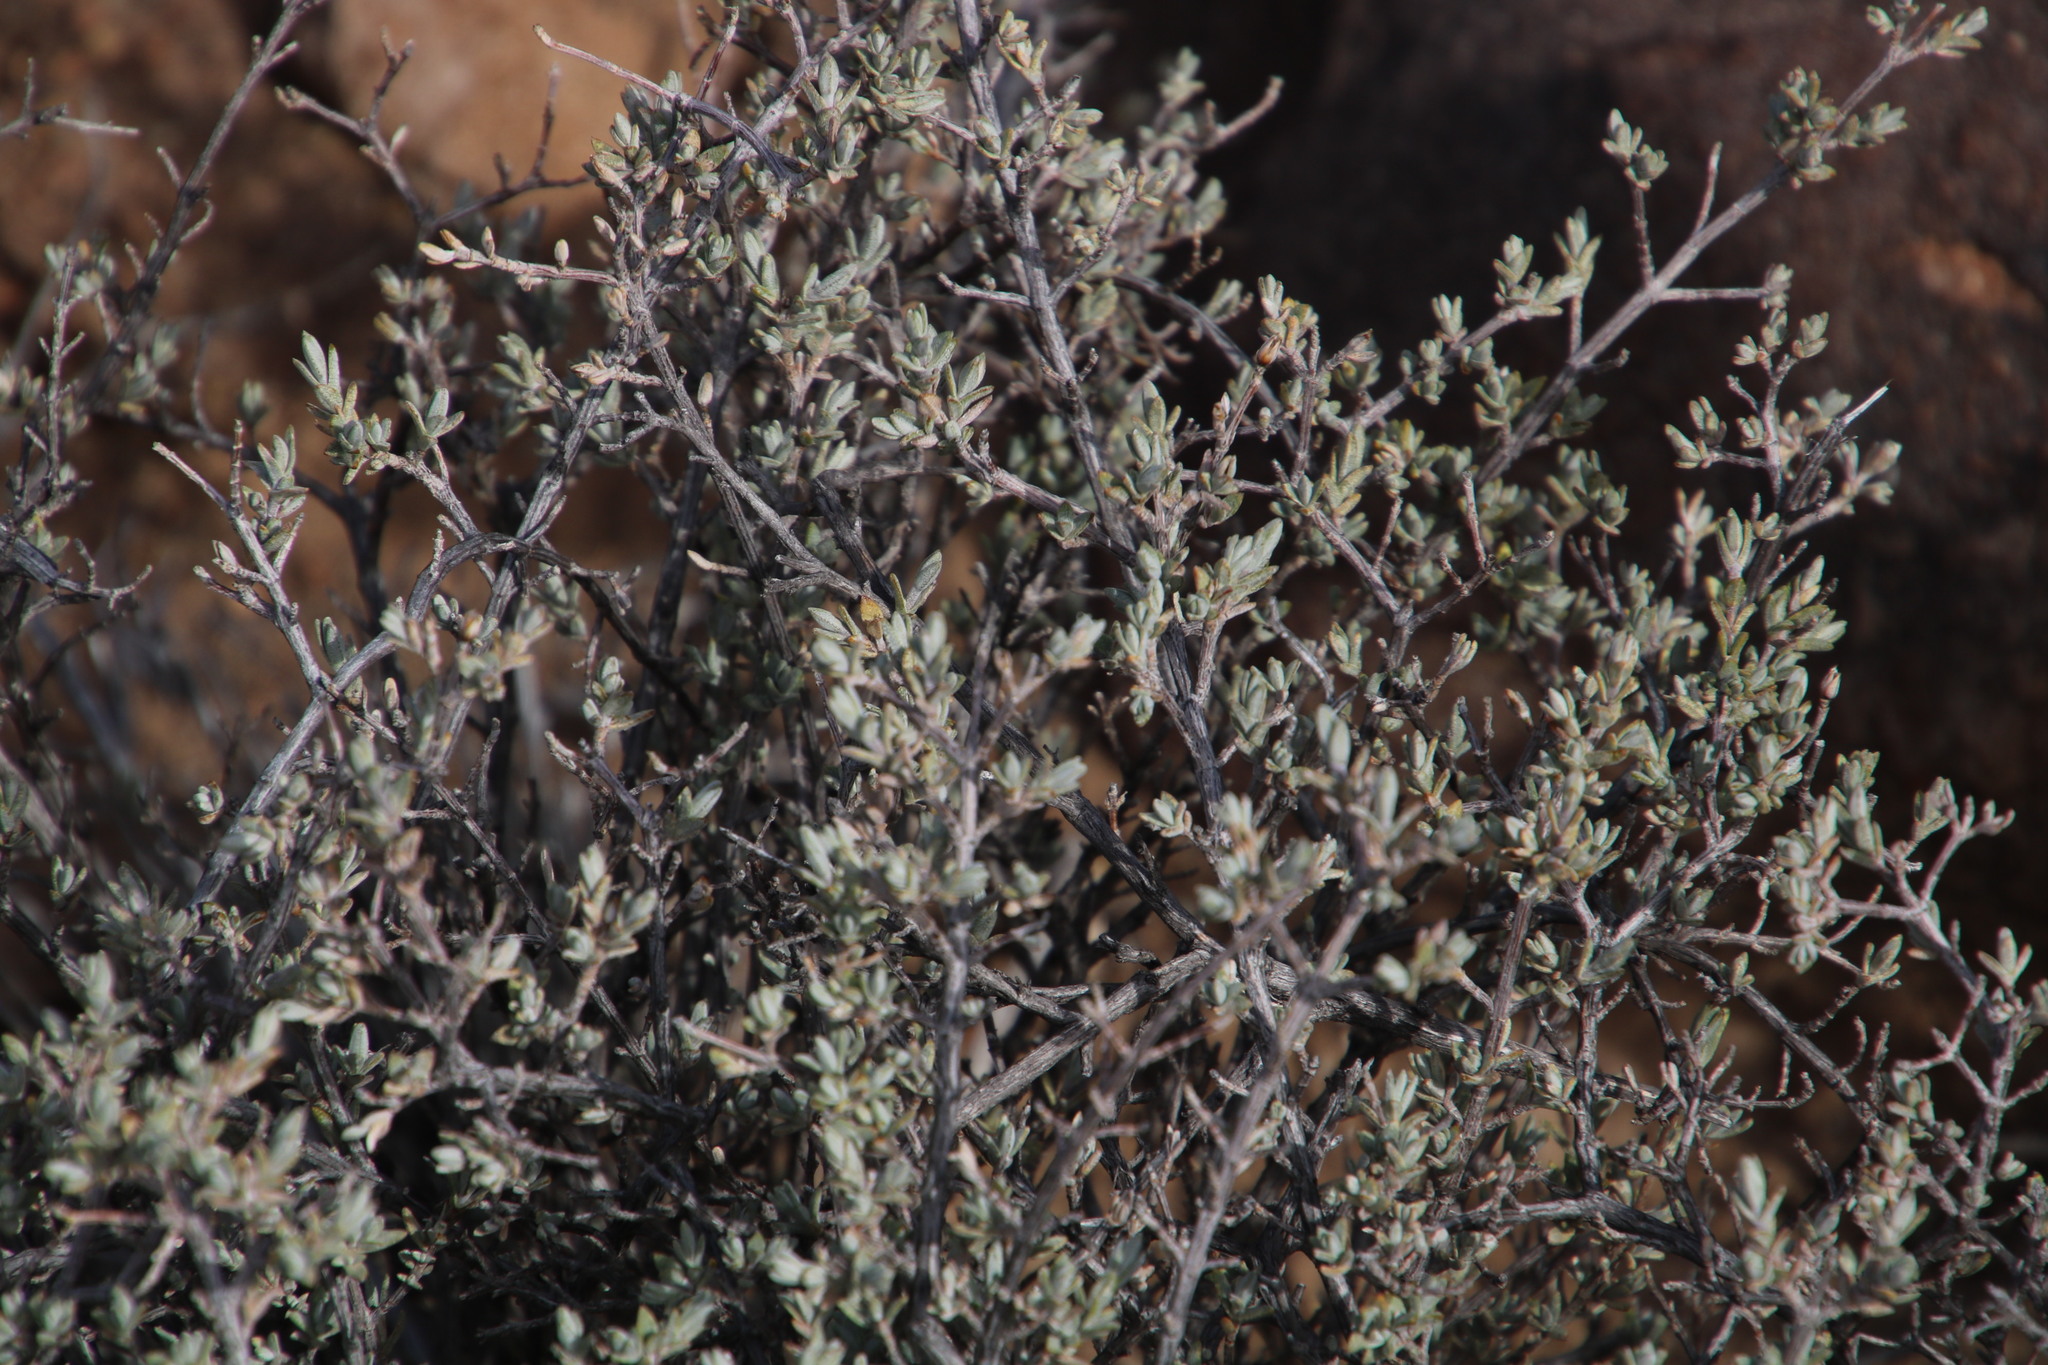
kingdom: Plantae
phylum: Tracheophyta
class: Magnoliopsida
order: Asterales
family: Asteraceae
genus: Oedera
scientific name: Oedera oppositifolia
